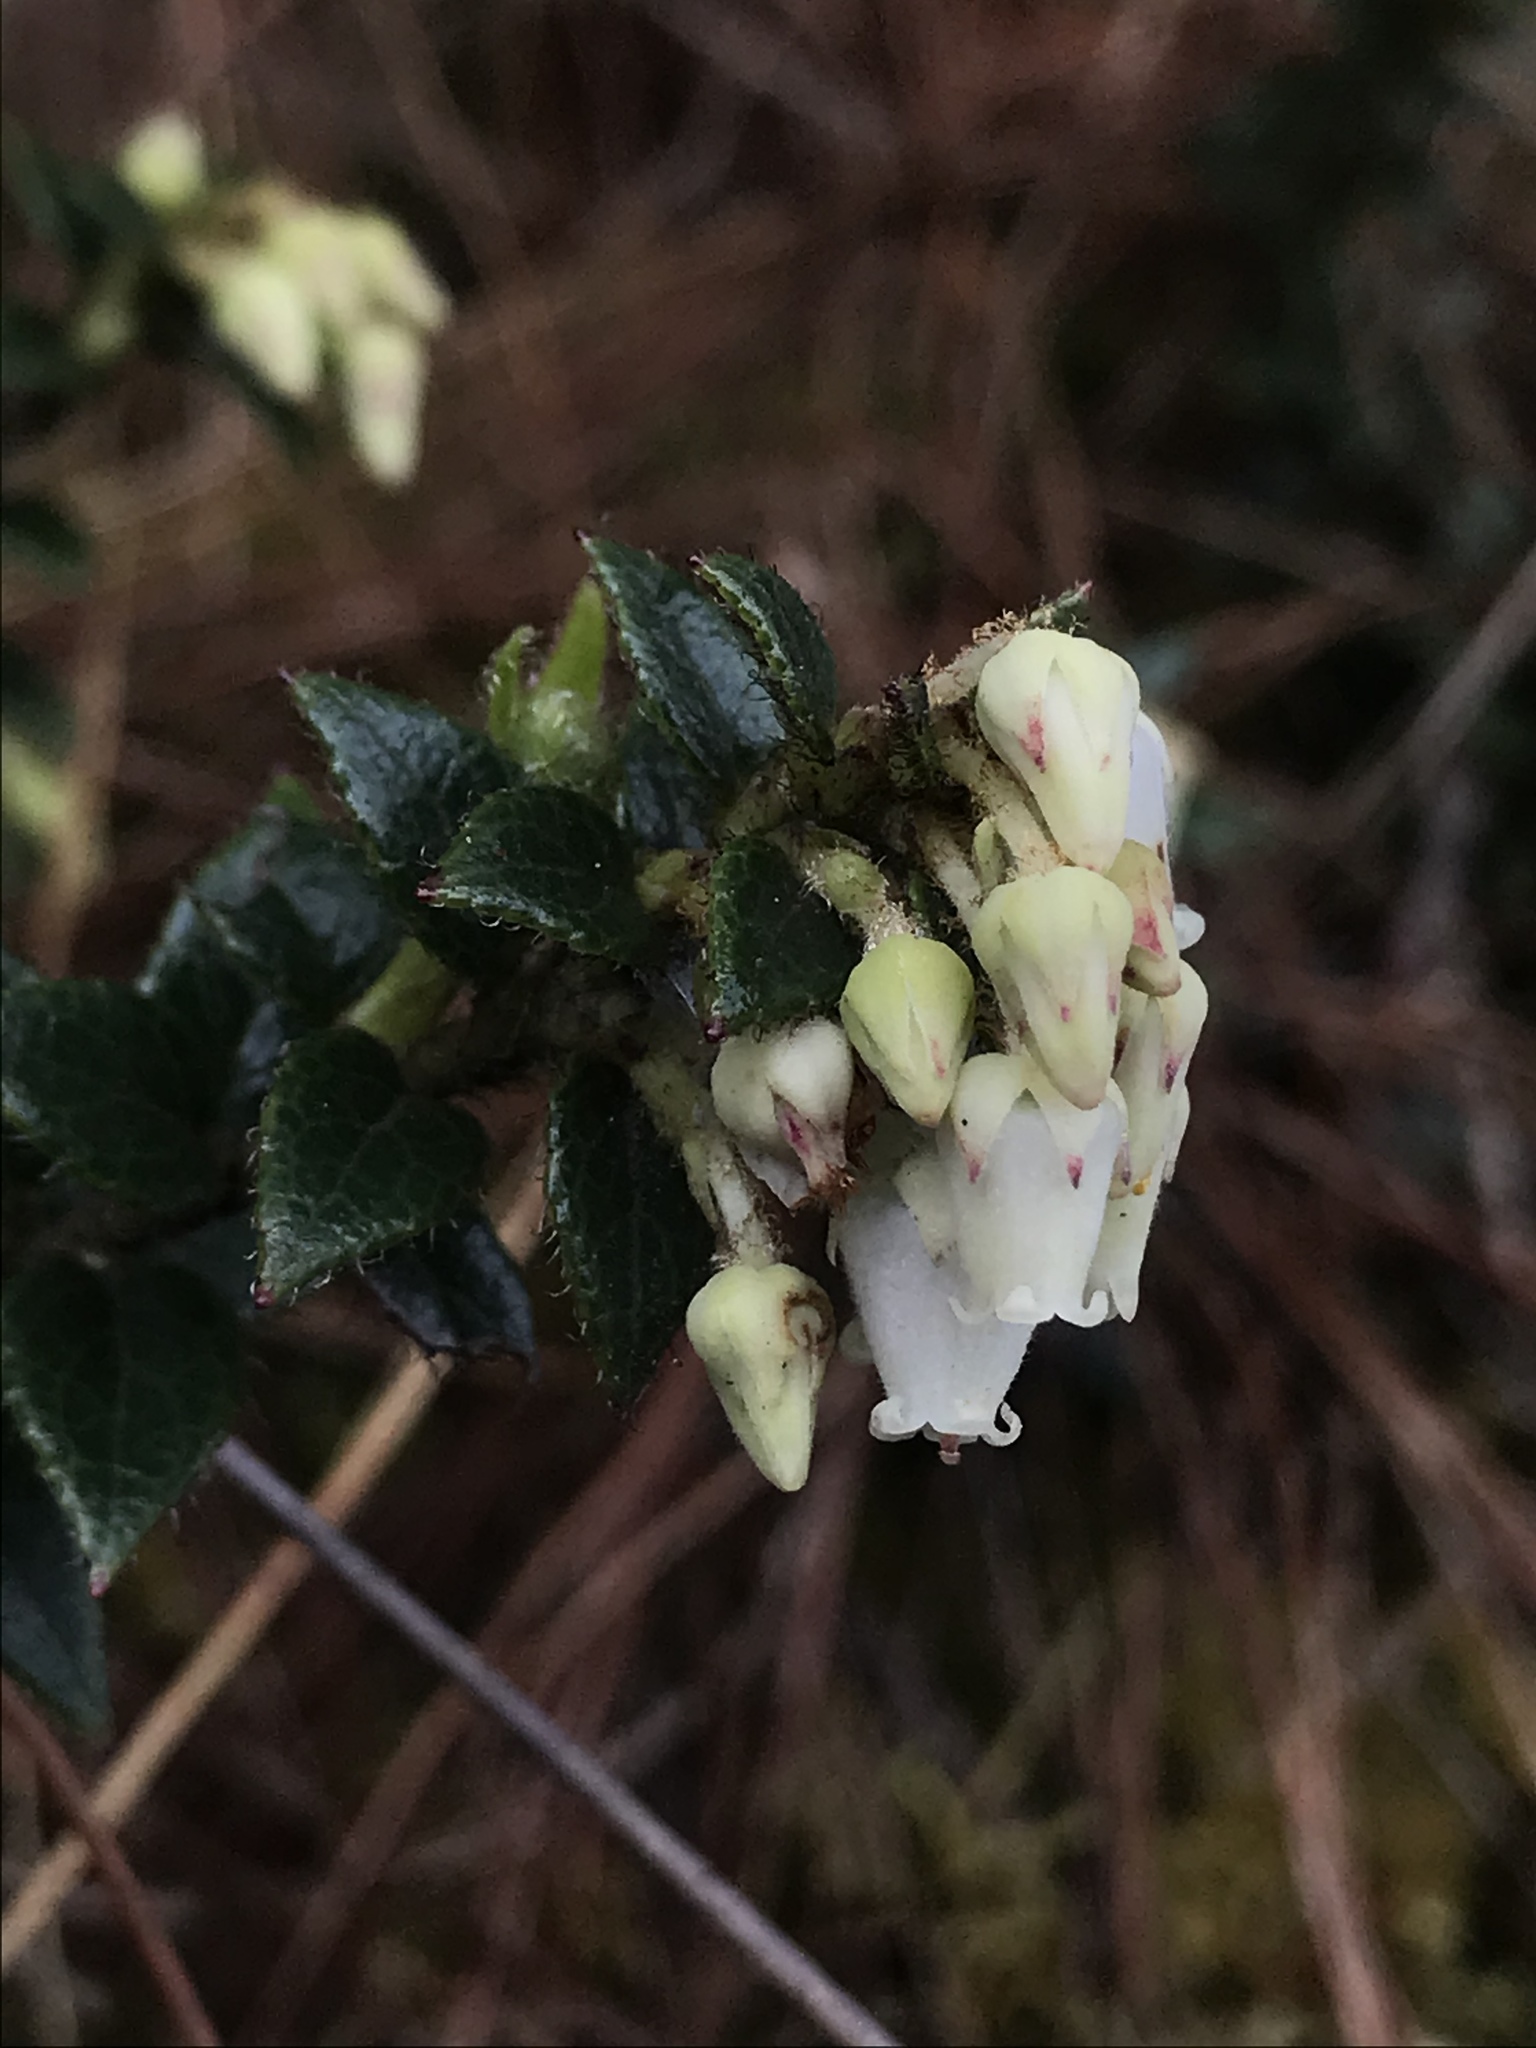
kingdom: Plantae
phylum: Tracheophyta
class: Magnoliopsida
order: Ericales
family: Ericaceae
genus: Gaultheria
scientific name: Gaultheria anastomosans
